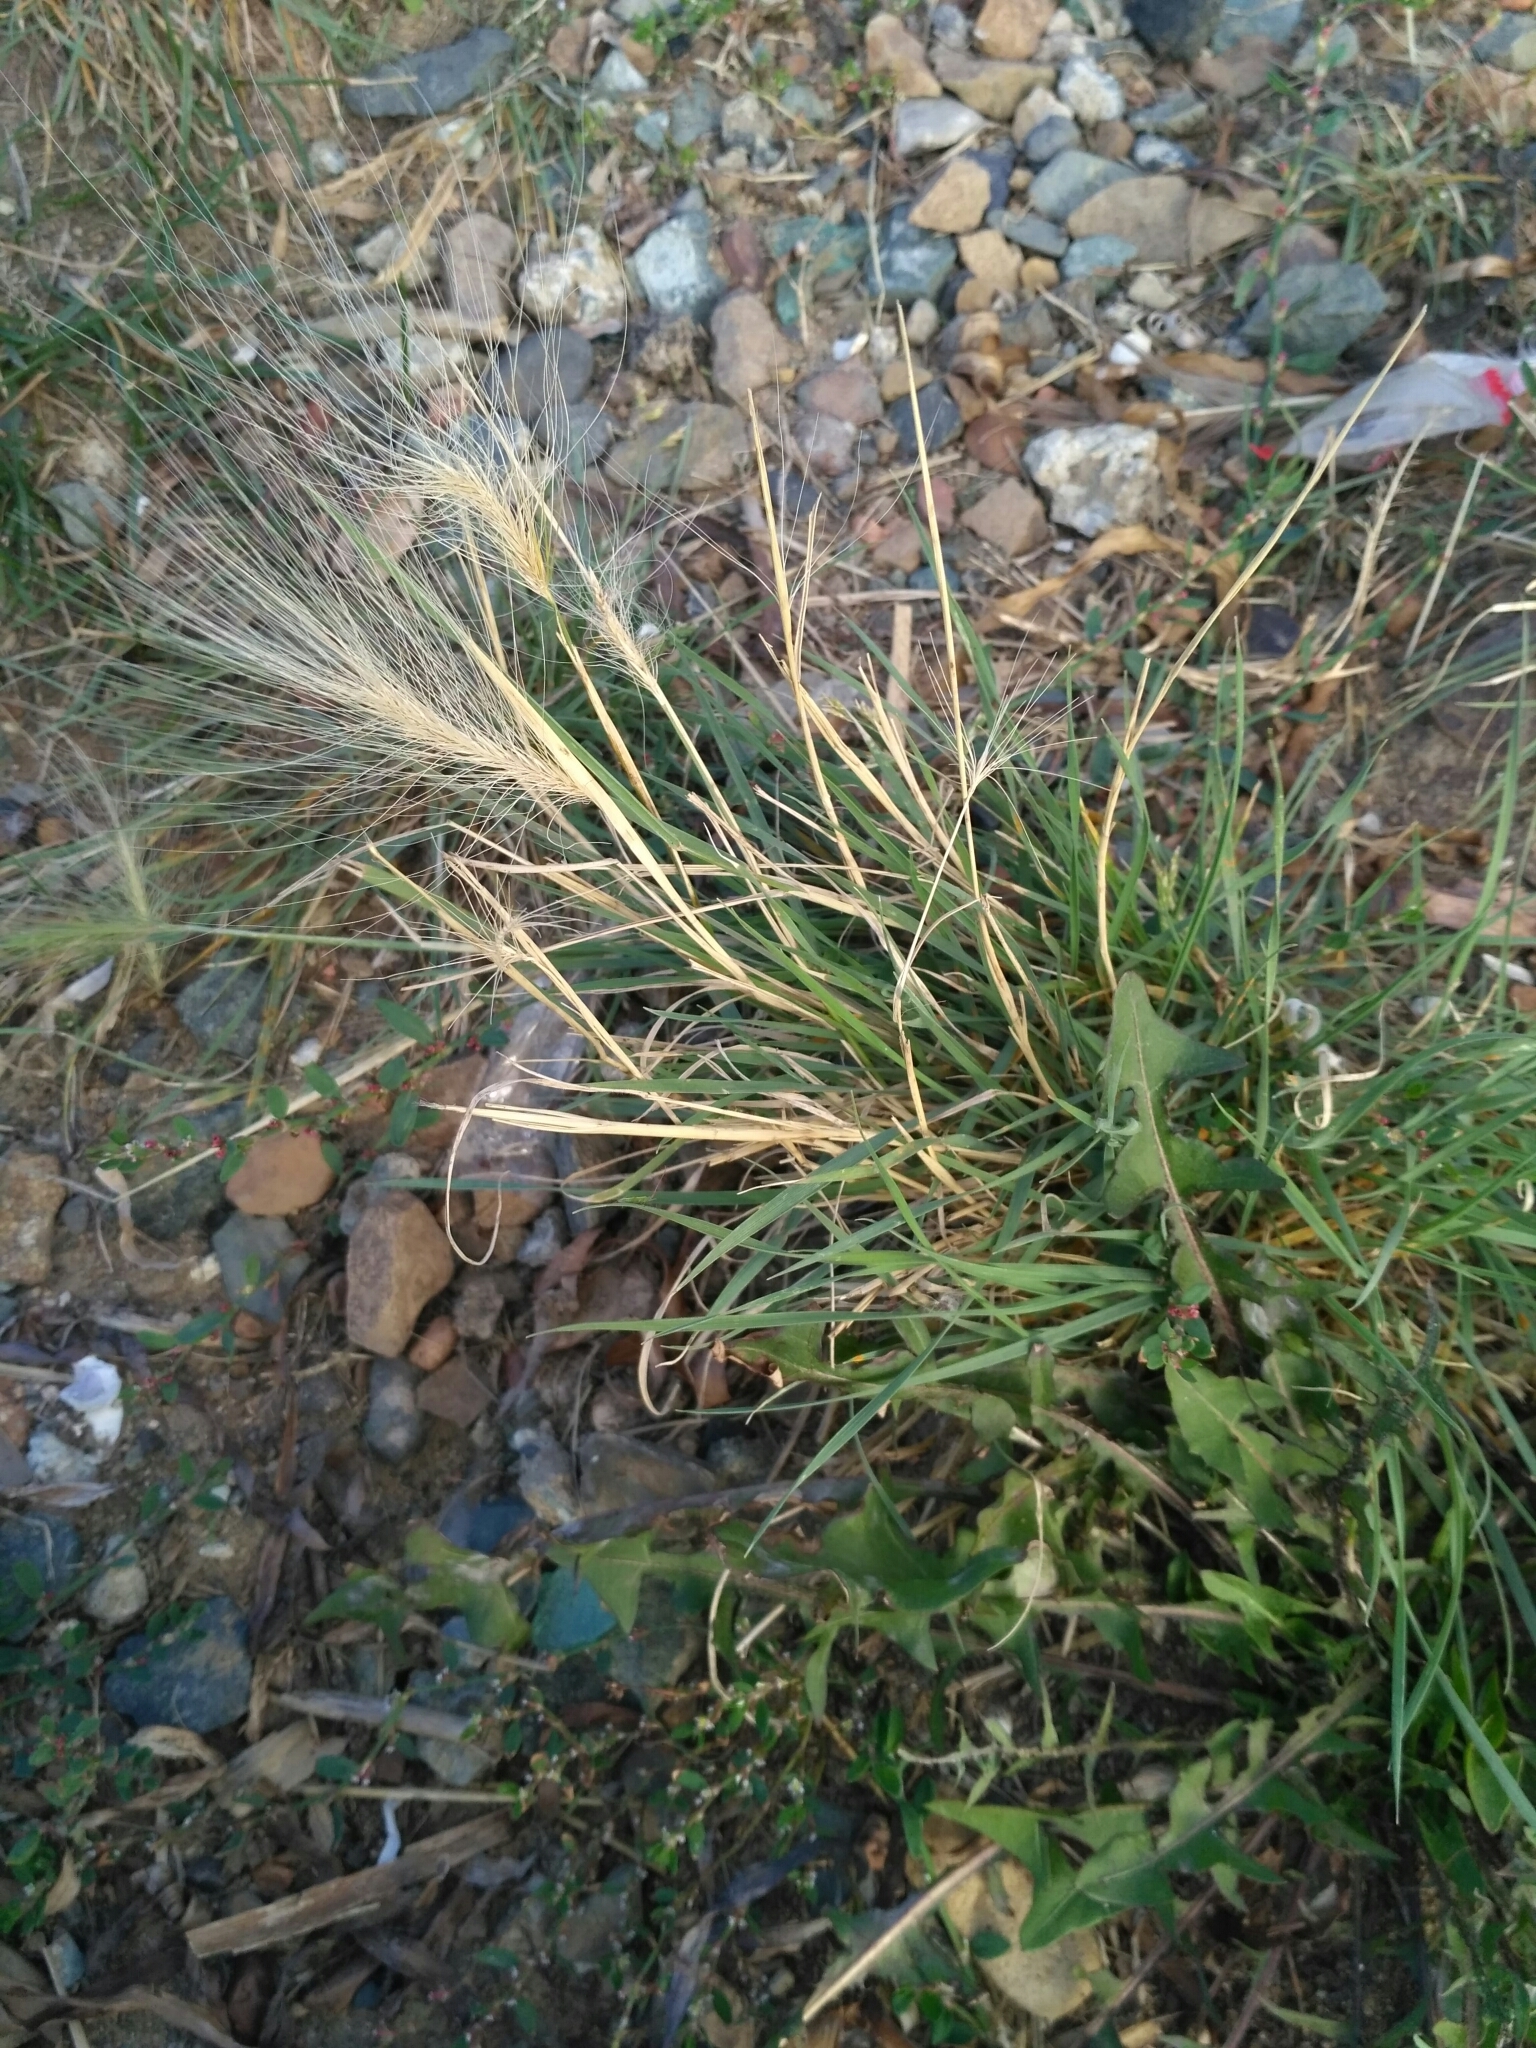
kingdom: Plantae
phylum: Tracheophyta
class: Liliopsida
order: Poales
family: Poaceae
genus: Hordeum
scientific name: Hordeum jubatum
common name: Foxtail barley
